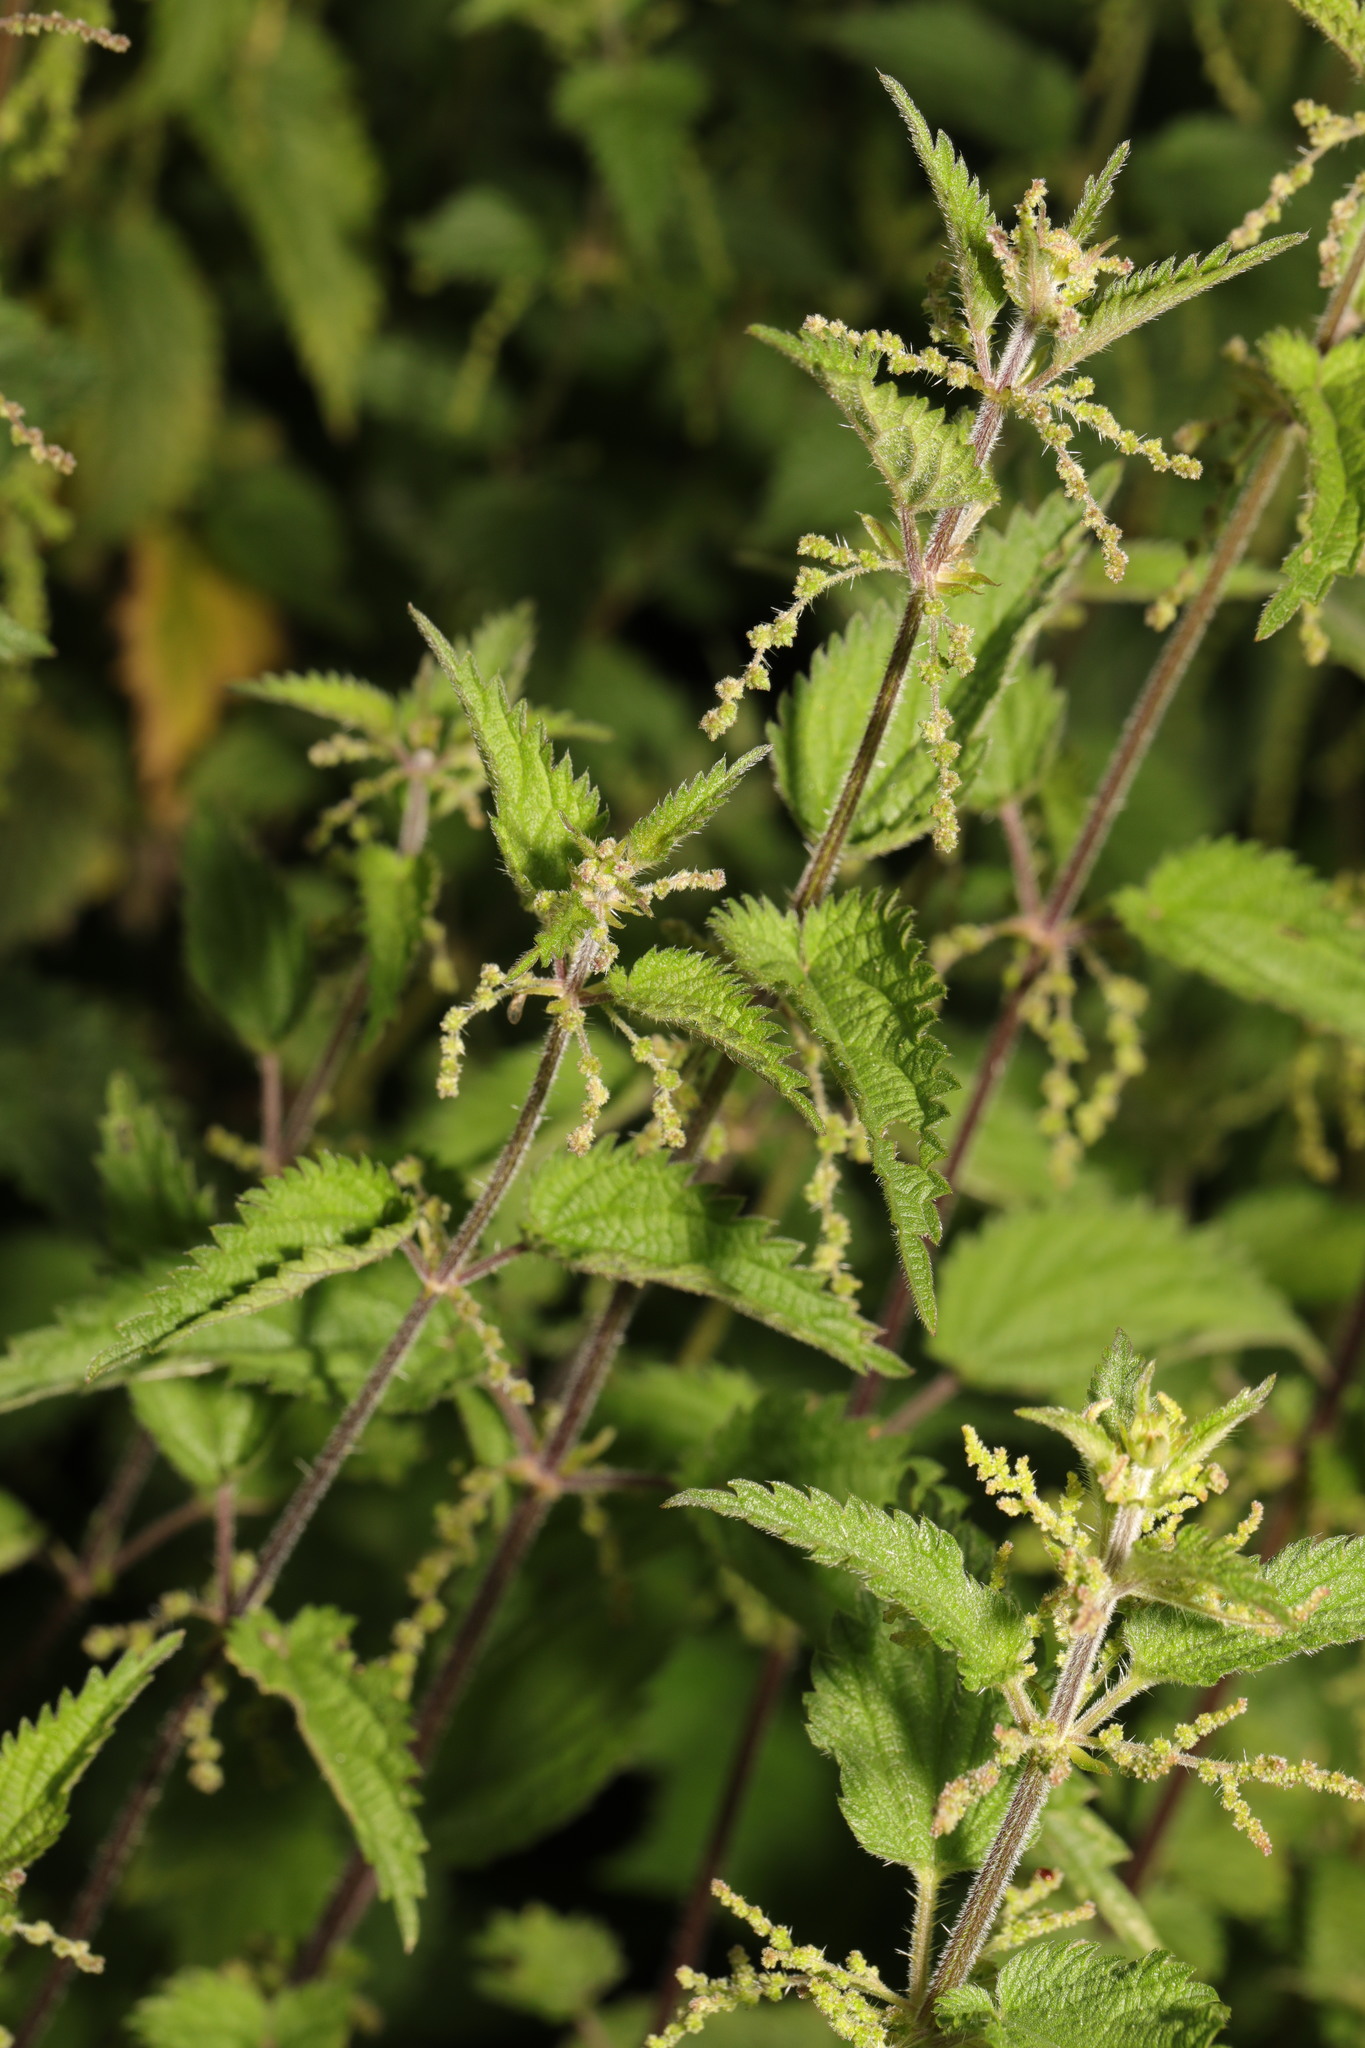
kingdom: Plantae
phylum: Tracheophyta
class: Magnoliopsida
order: Rosales
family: Urticaceae
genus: Urtica
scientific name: Urtica dioica
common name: Common nettle
